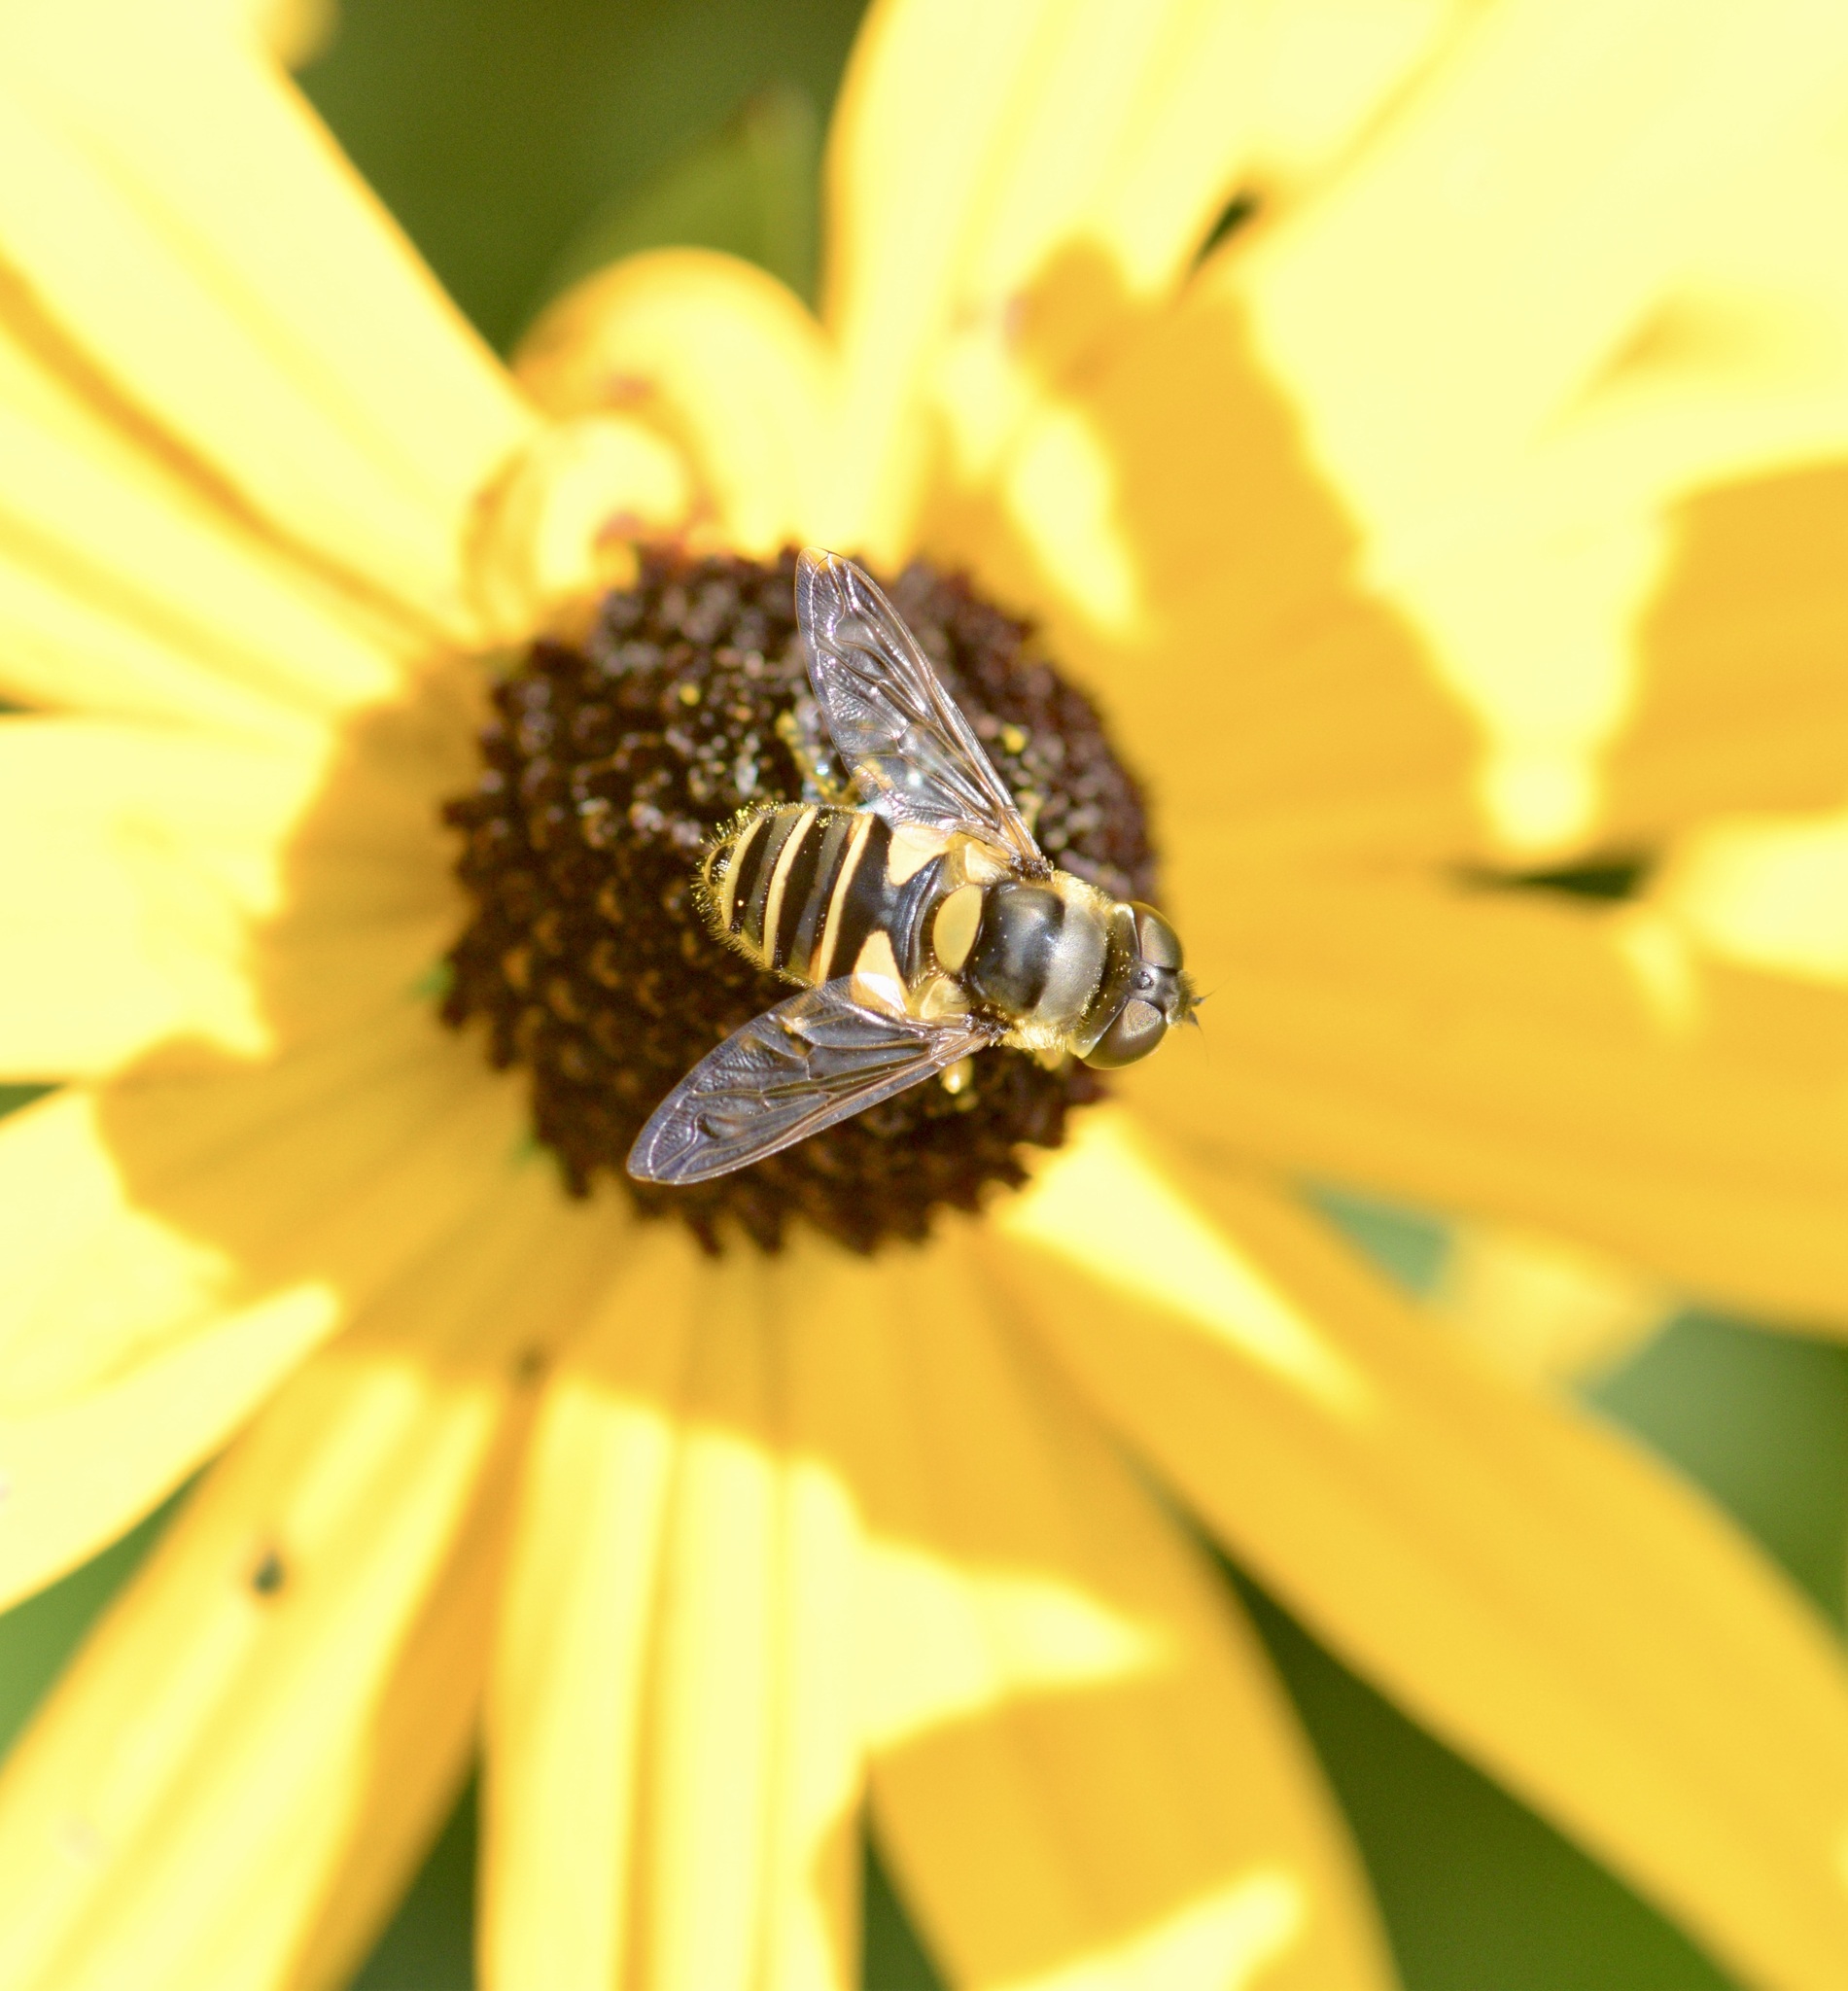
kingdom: Animalia
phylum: Arthropoda
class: Insecta
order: Diptera
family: Syrphidae
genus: Eristalis
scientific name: Eristalis transversa
